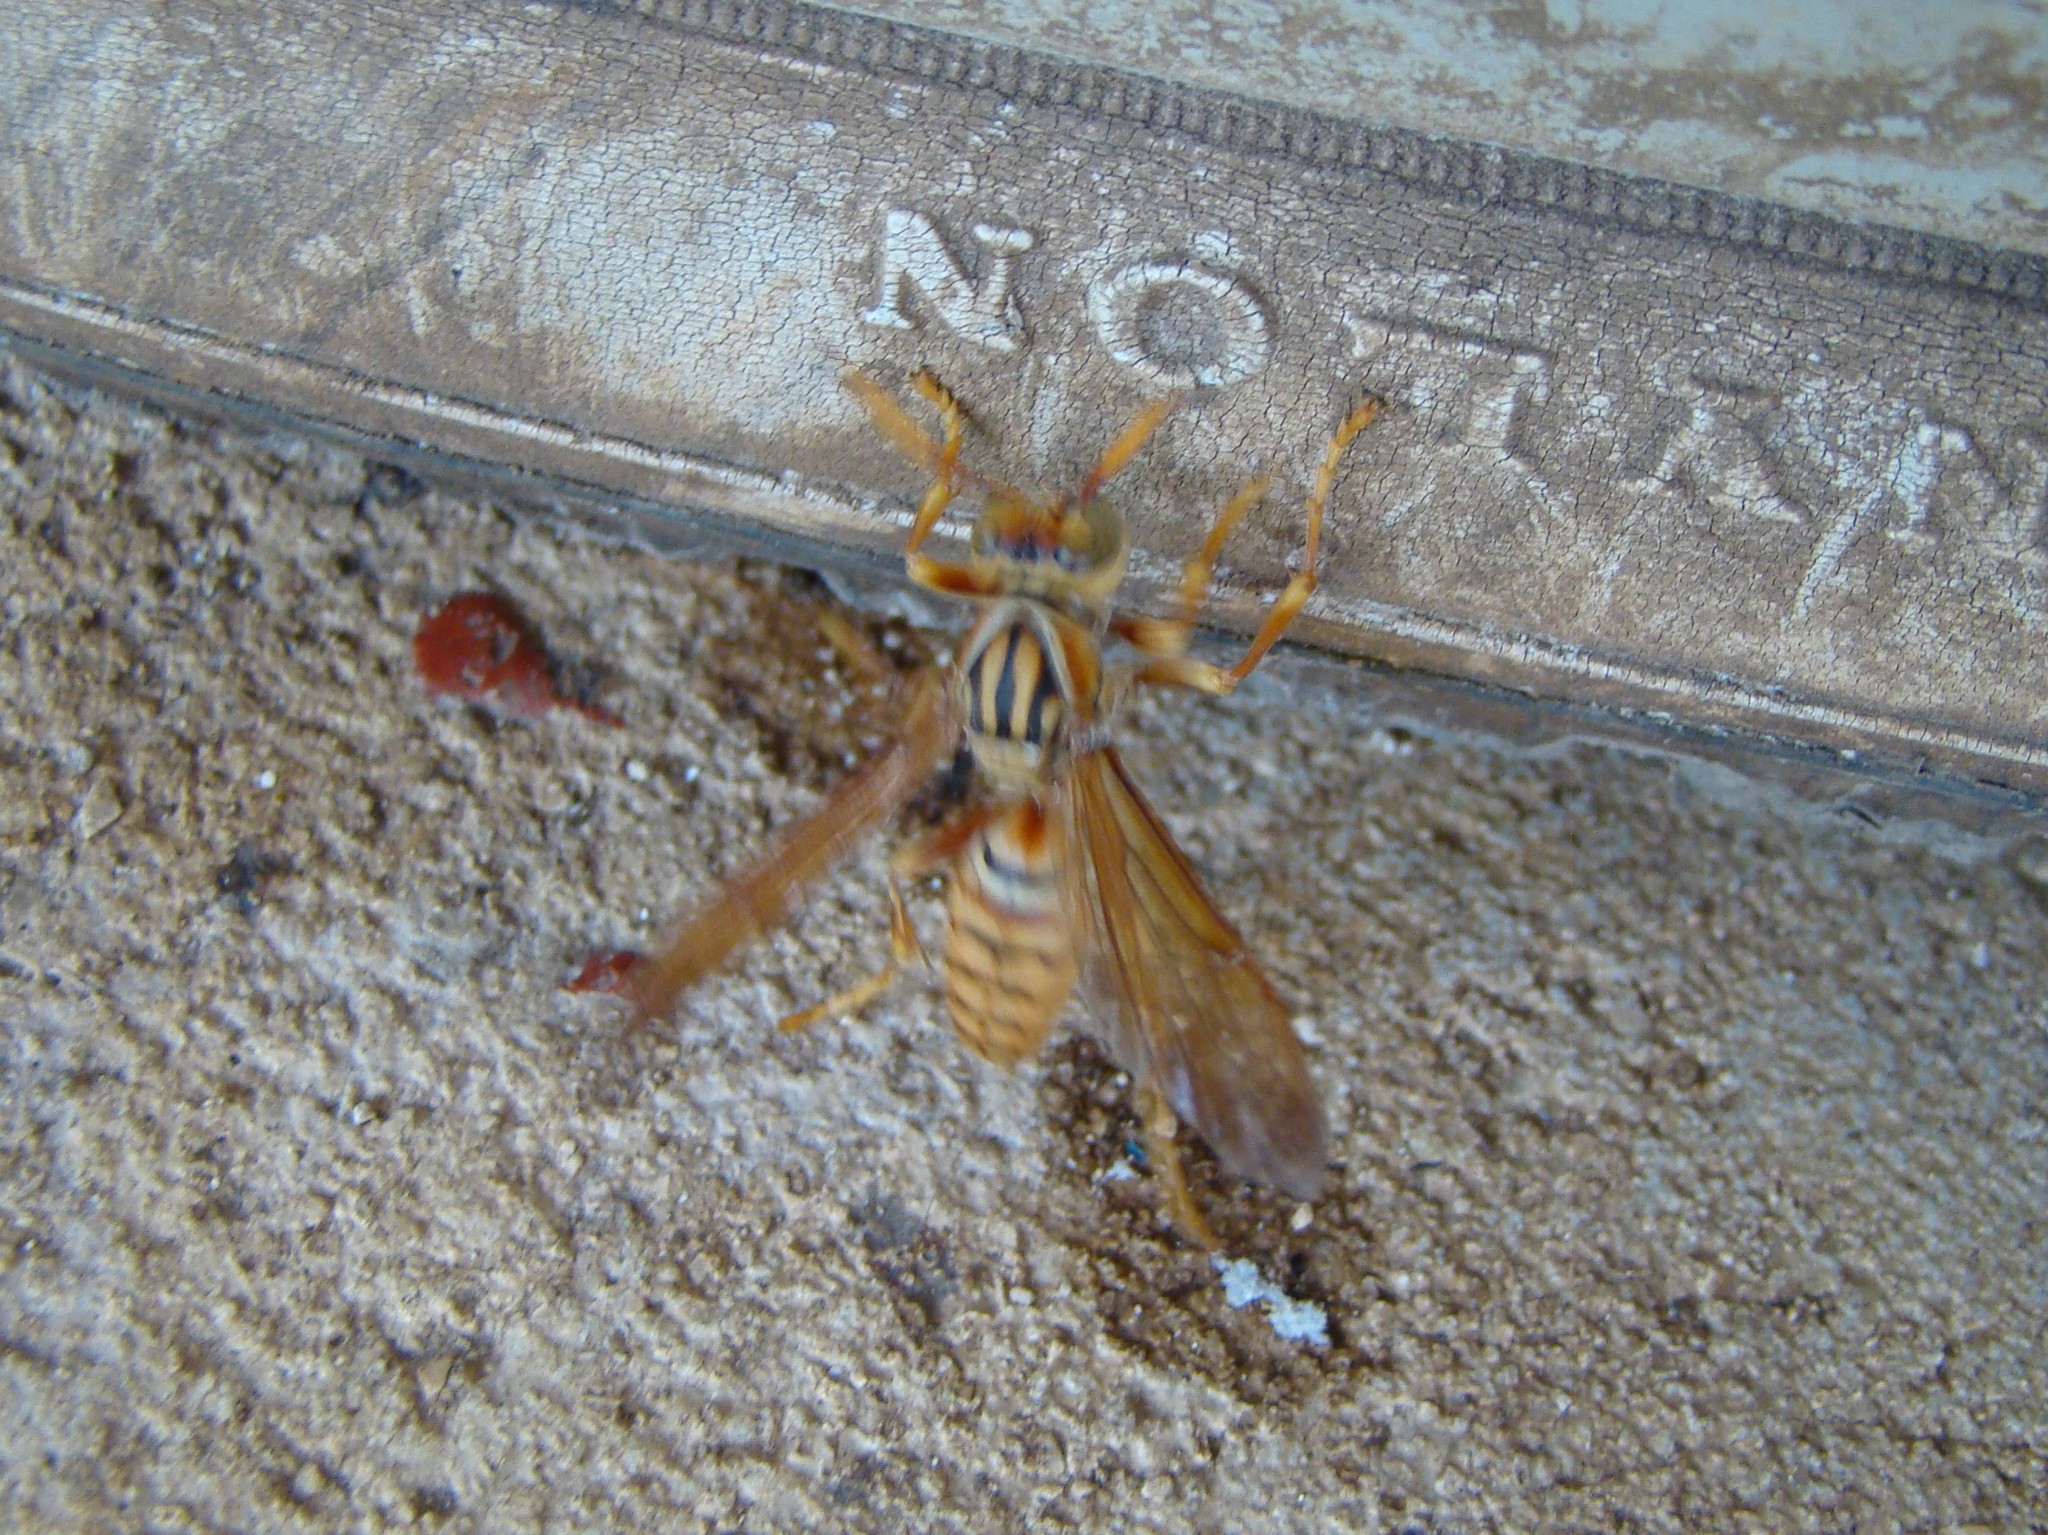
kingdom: Animalia
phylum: Arthropoda
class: Insecta
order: Hymenoptera
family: Eumenidae
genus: Polistes
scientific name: Polistes olivaceus
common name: Paper wasp
